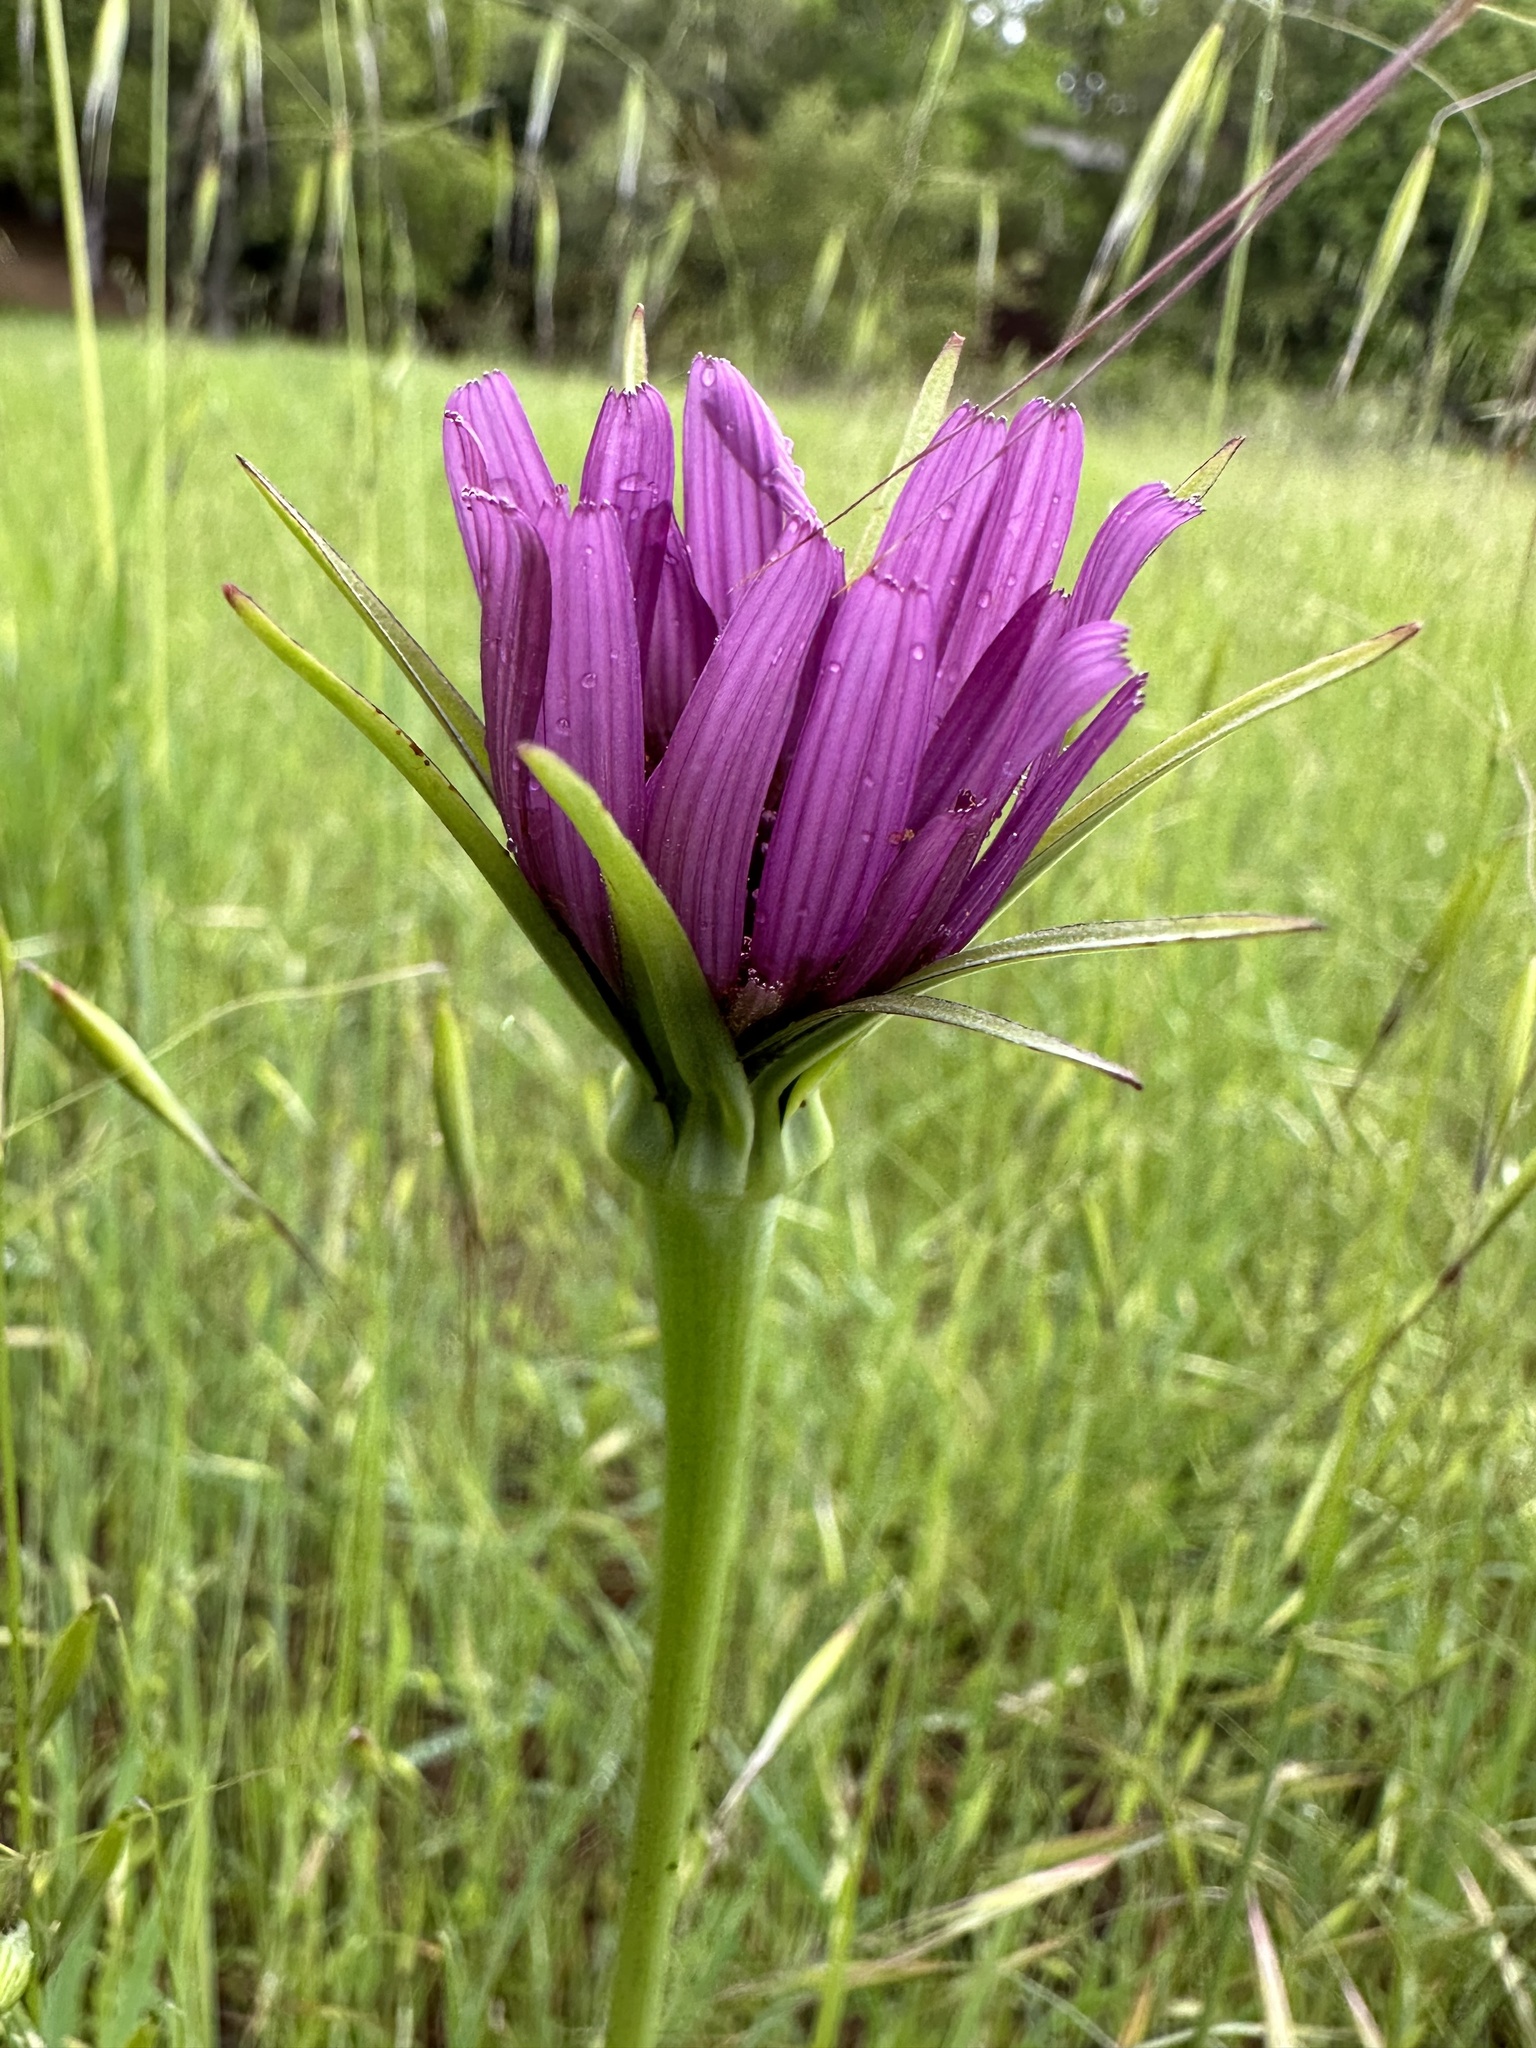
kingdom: Plantae
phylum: Tracheophyta
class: Magnoliopsida
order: Asterales
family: Asteraceae
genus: Tragopogon
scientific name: Tragopogon porrifolius
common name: Salsify
